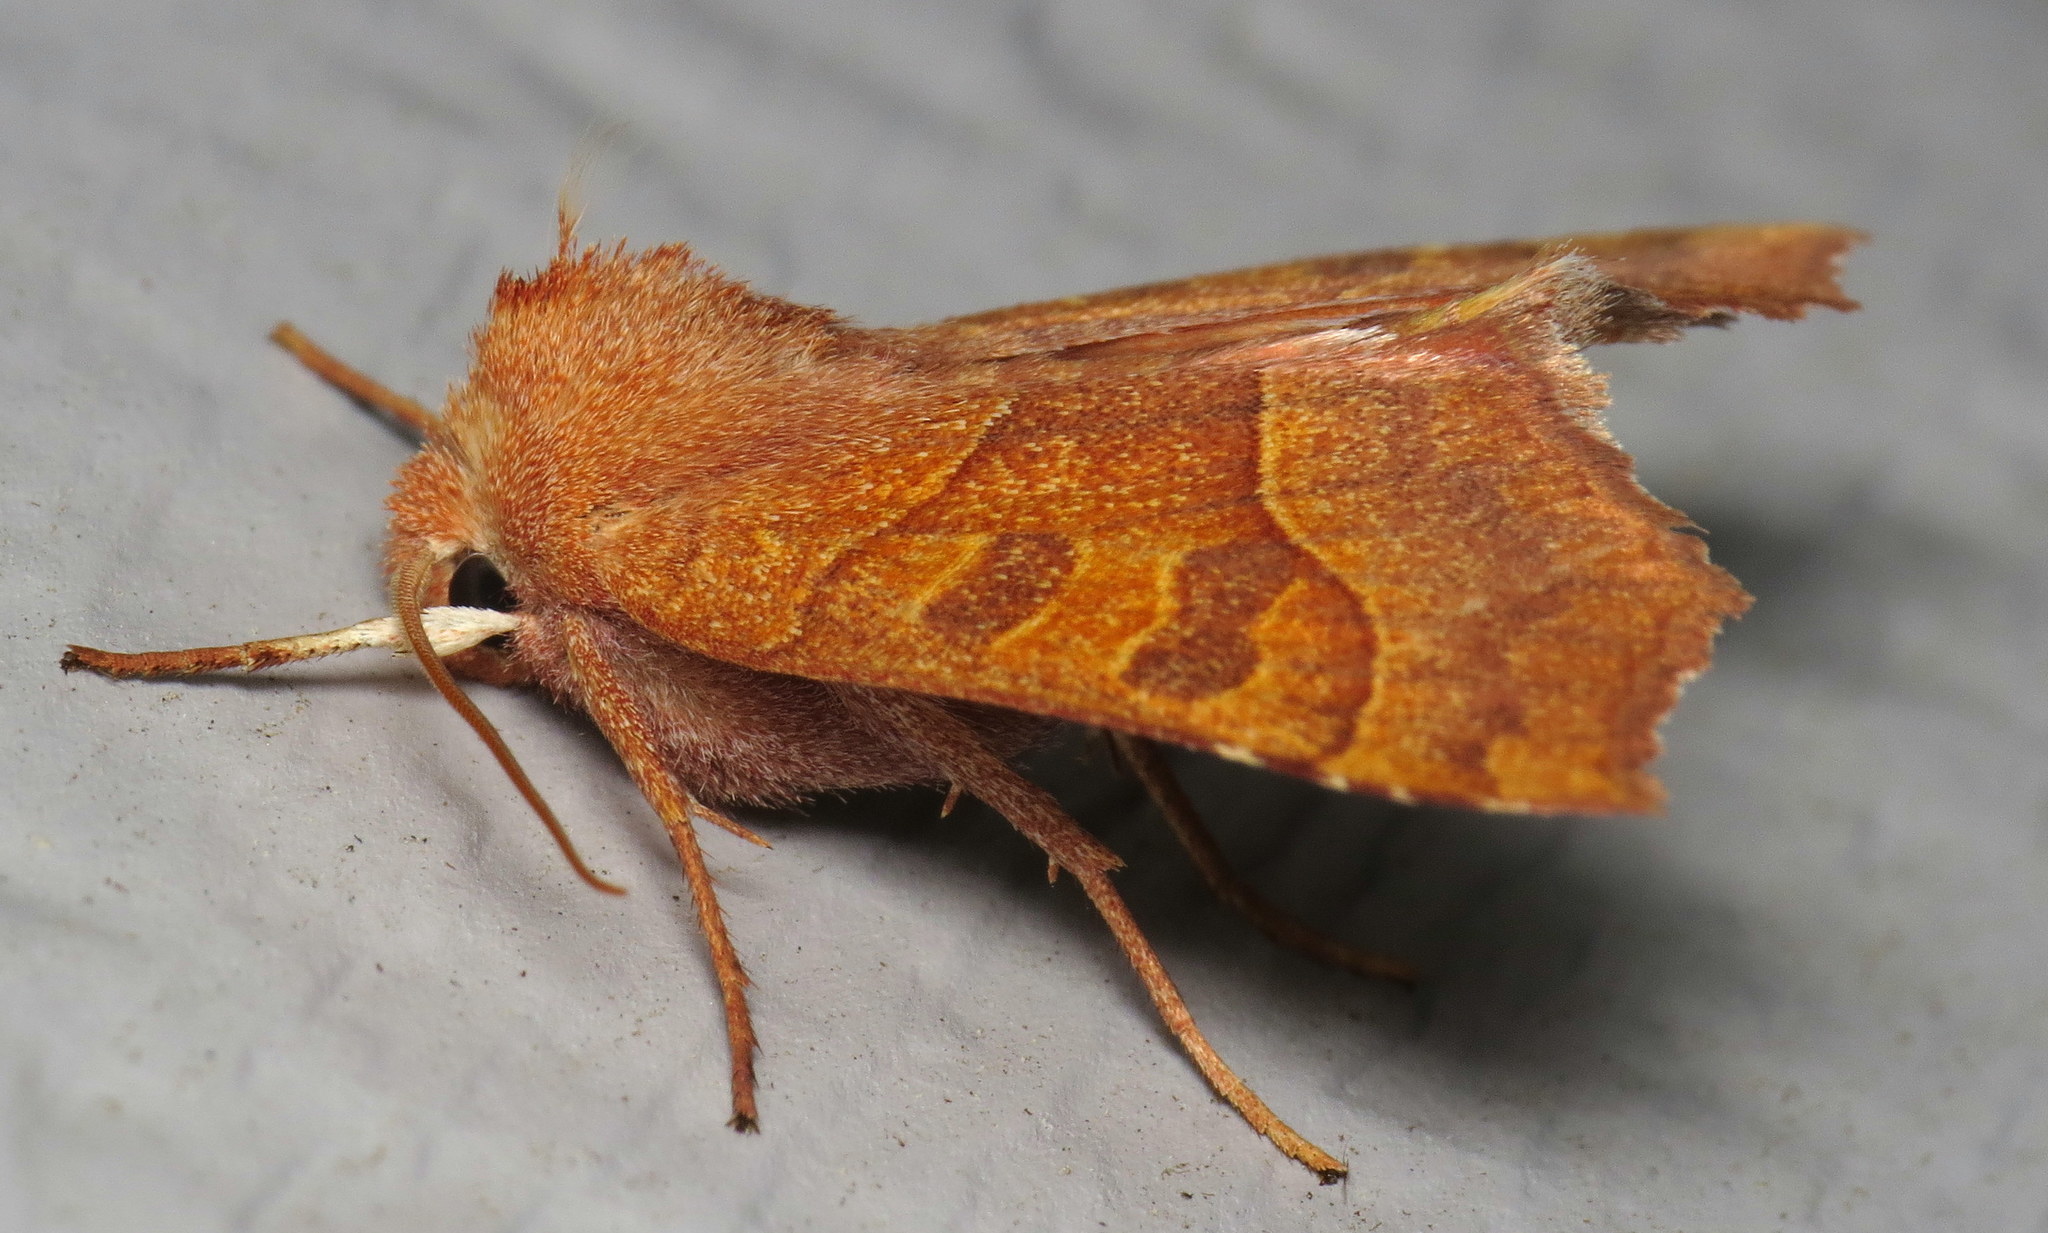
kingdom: Animalia
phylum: Arthropoda
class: Insecta
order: Lepidoptera
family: Noctuidae
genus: Eucirroedia
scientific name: Eucirroedia pampina
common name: Scalloped sallow
